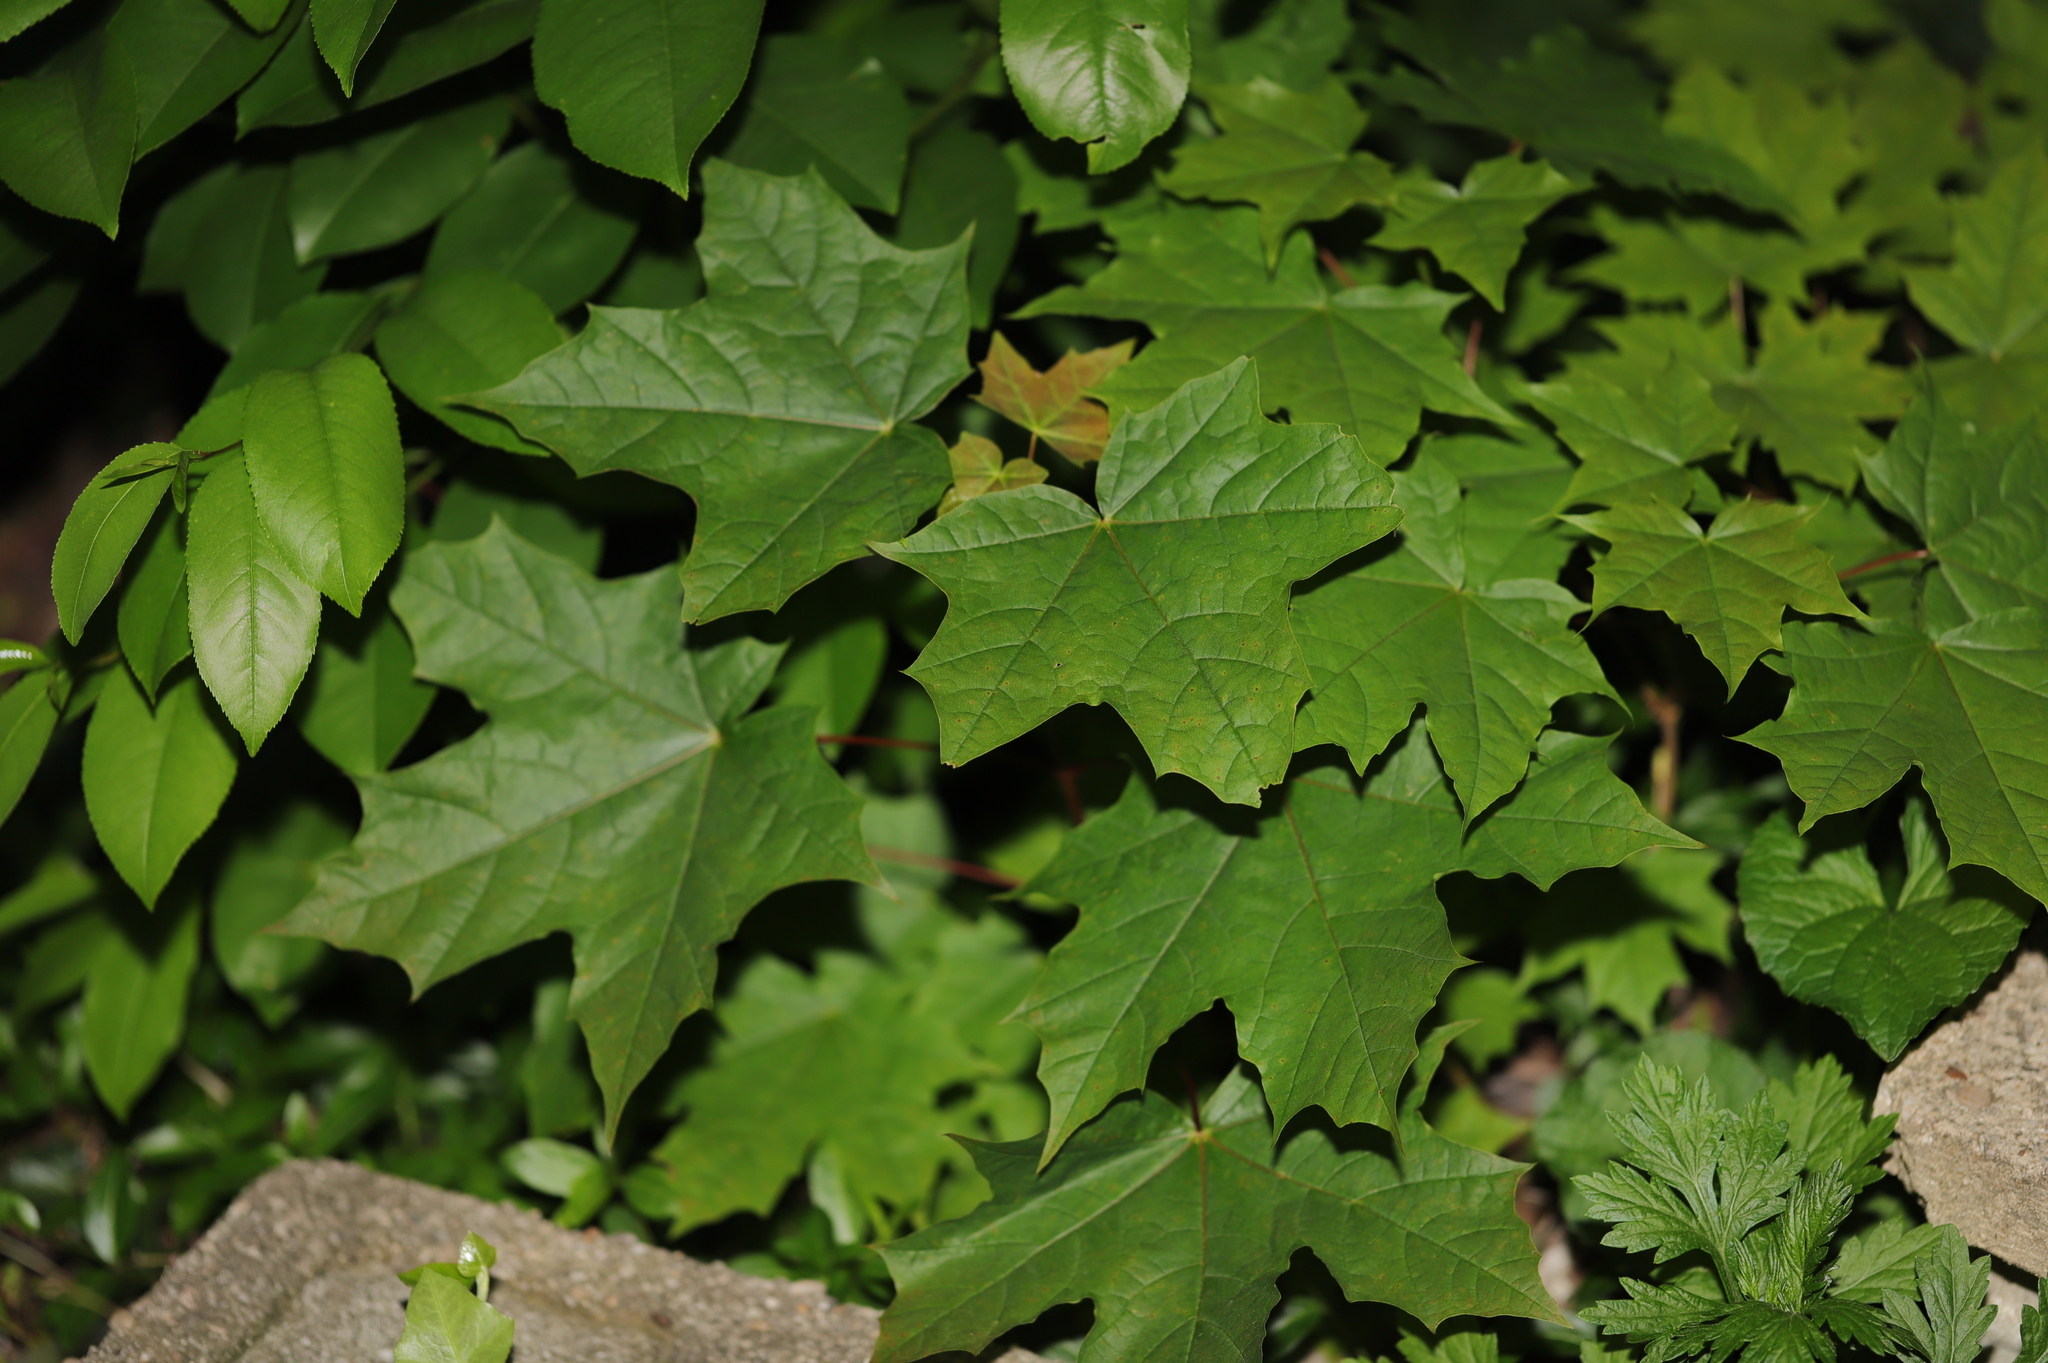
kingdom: Plantae
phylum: Tracheophyta
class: Magnoliopsida
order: Sapindales
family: Sapindaceae
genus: Acer
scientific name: Acer platanoides
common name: Norway maple
